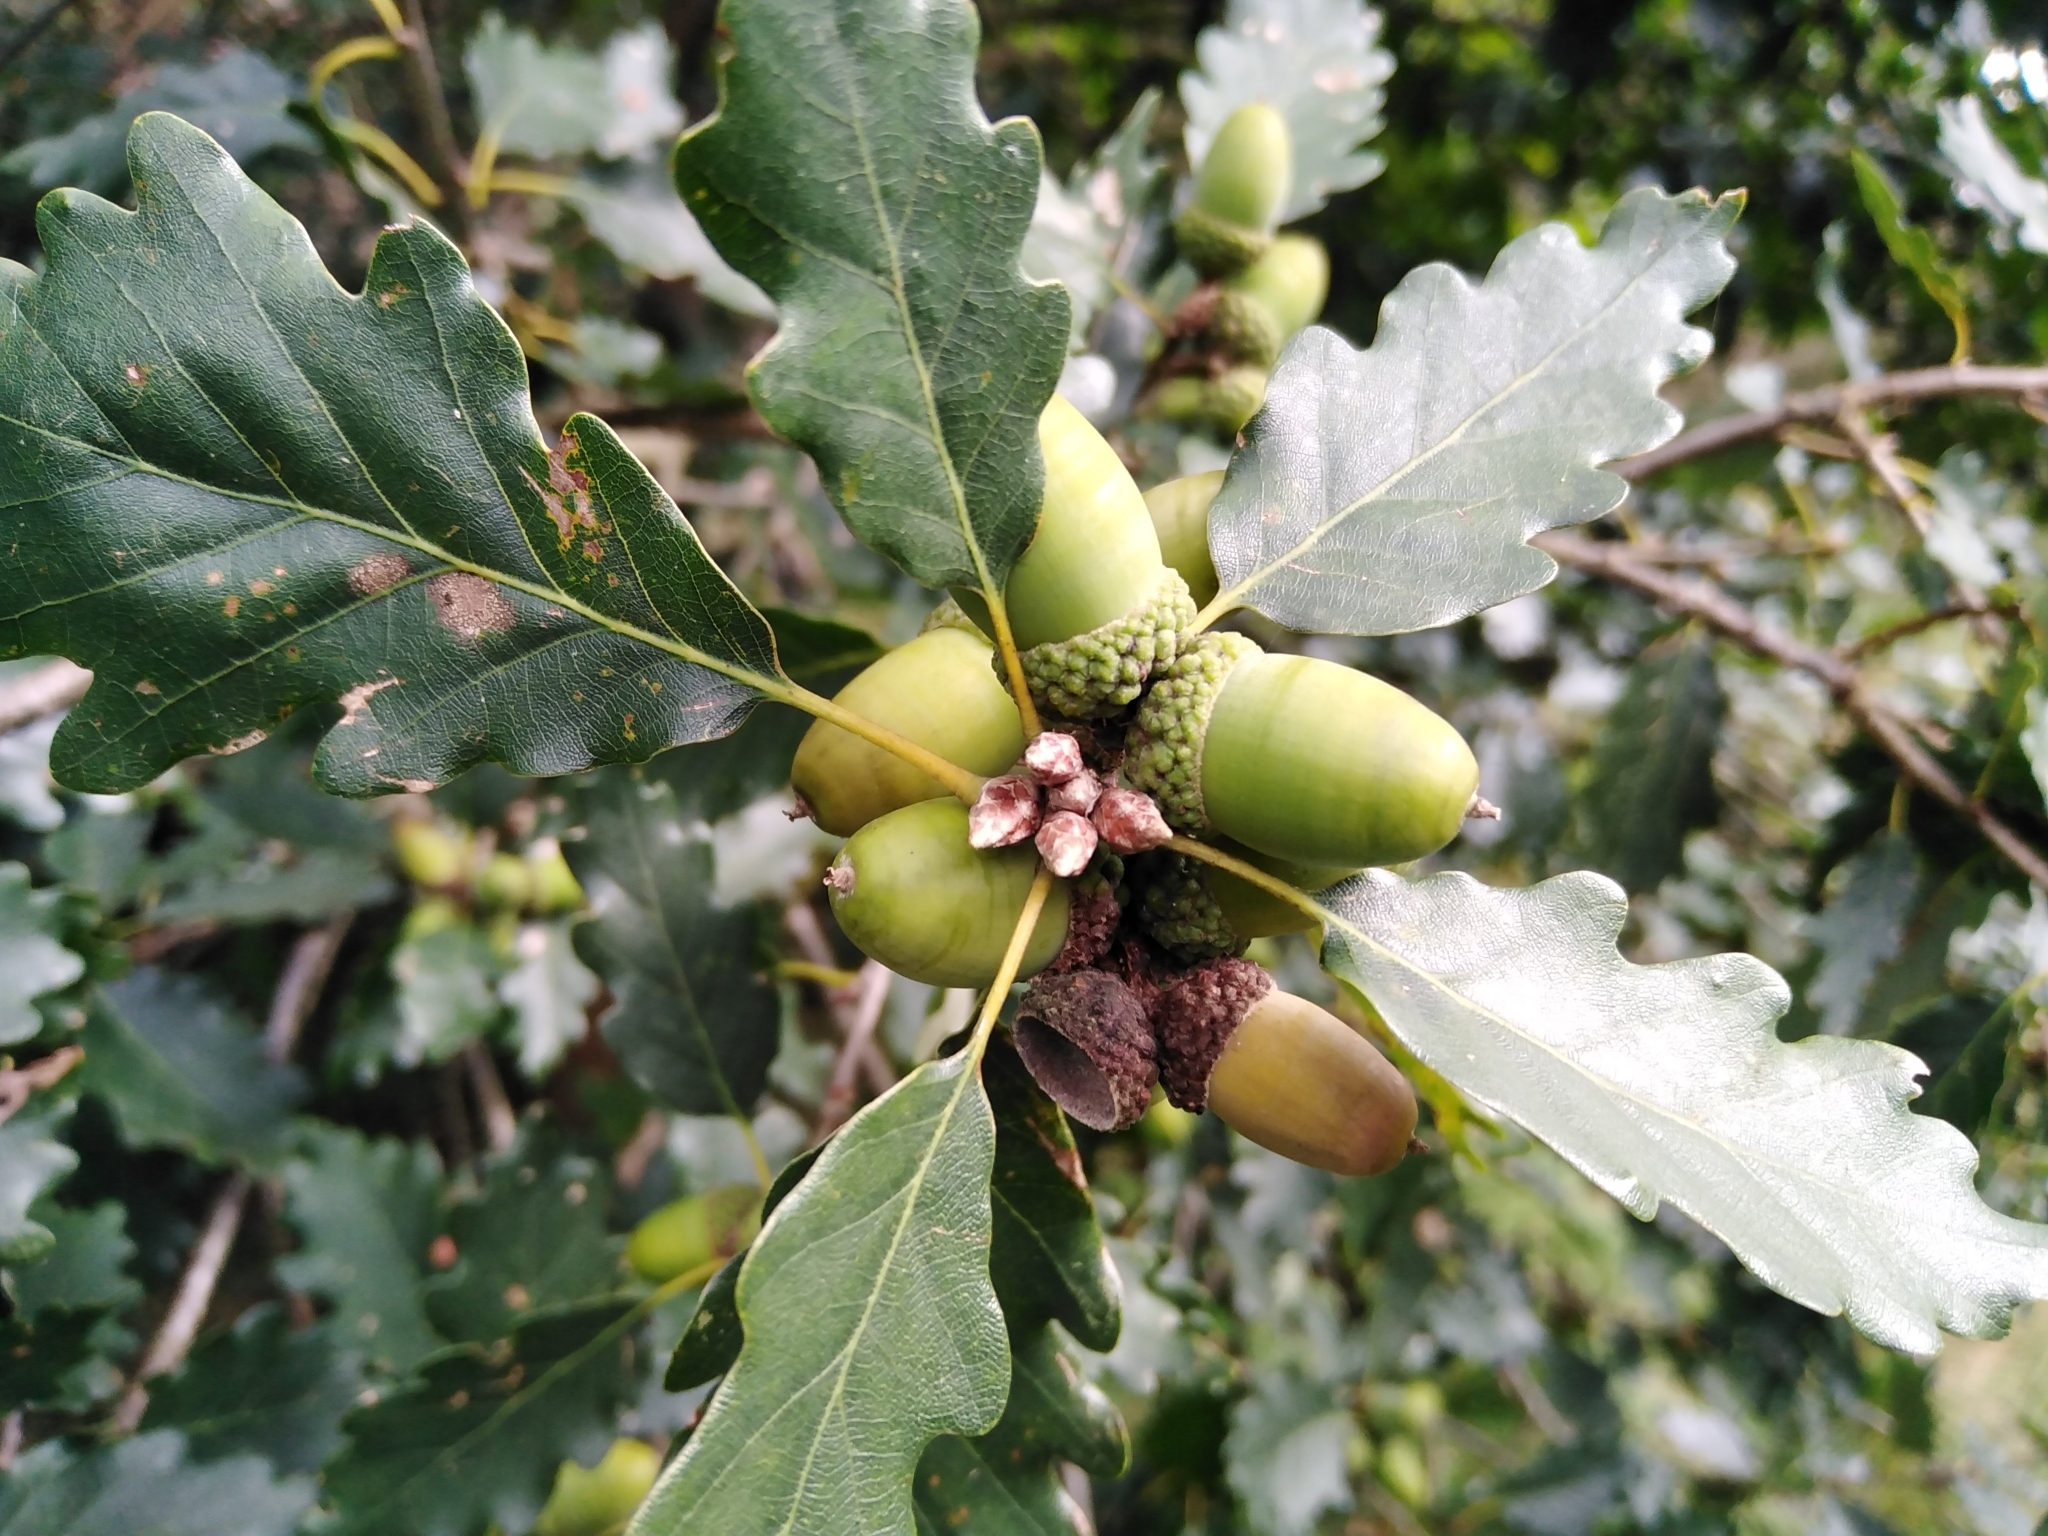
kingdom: Plantae
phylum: Tracheophyta
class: Magnoliopsida
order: Fagales
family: Fagaceae
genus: Quercus
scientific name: Quercus petraea
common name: Sessile oak
